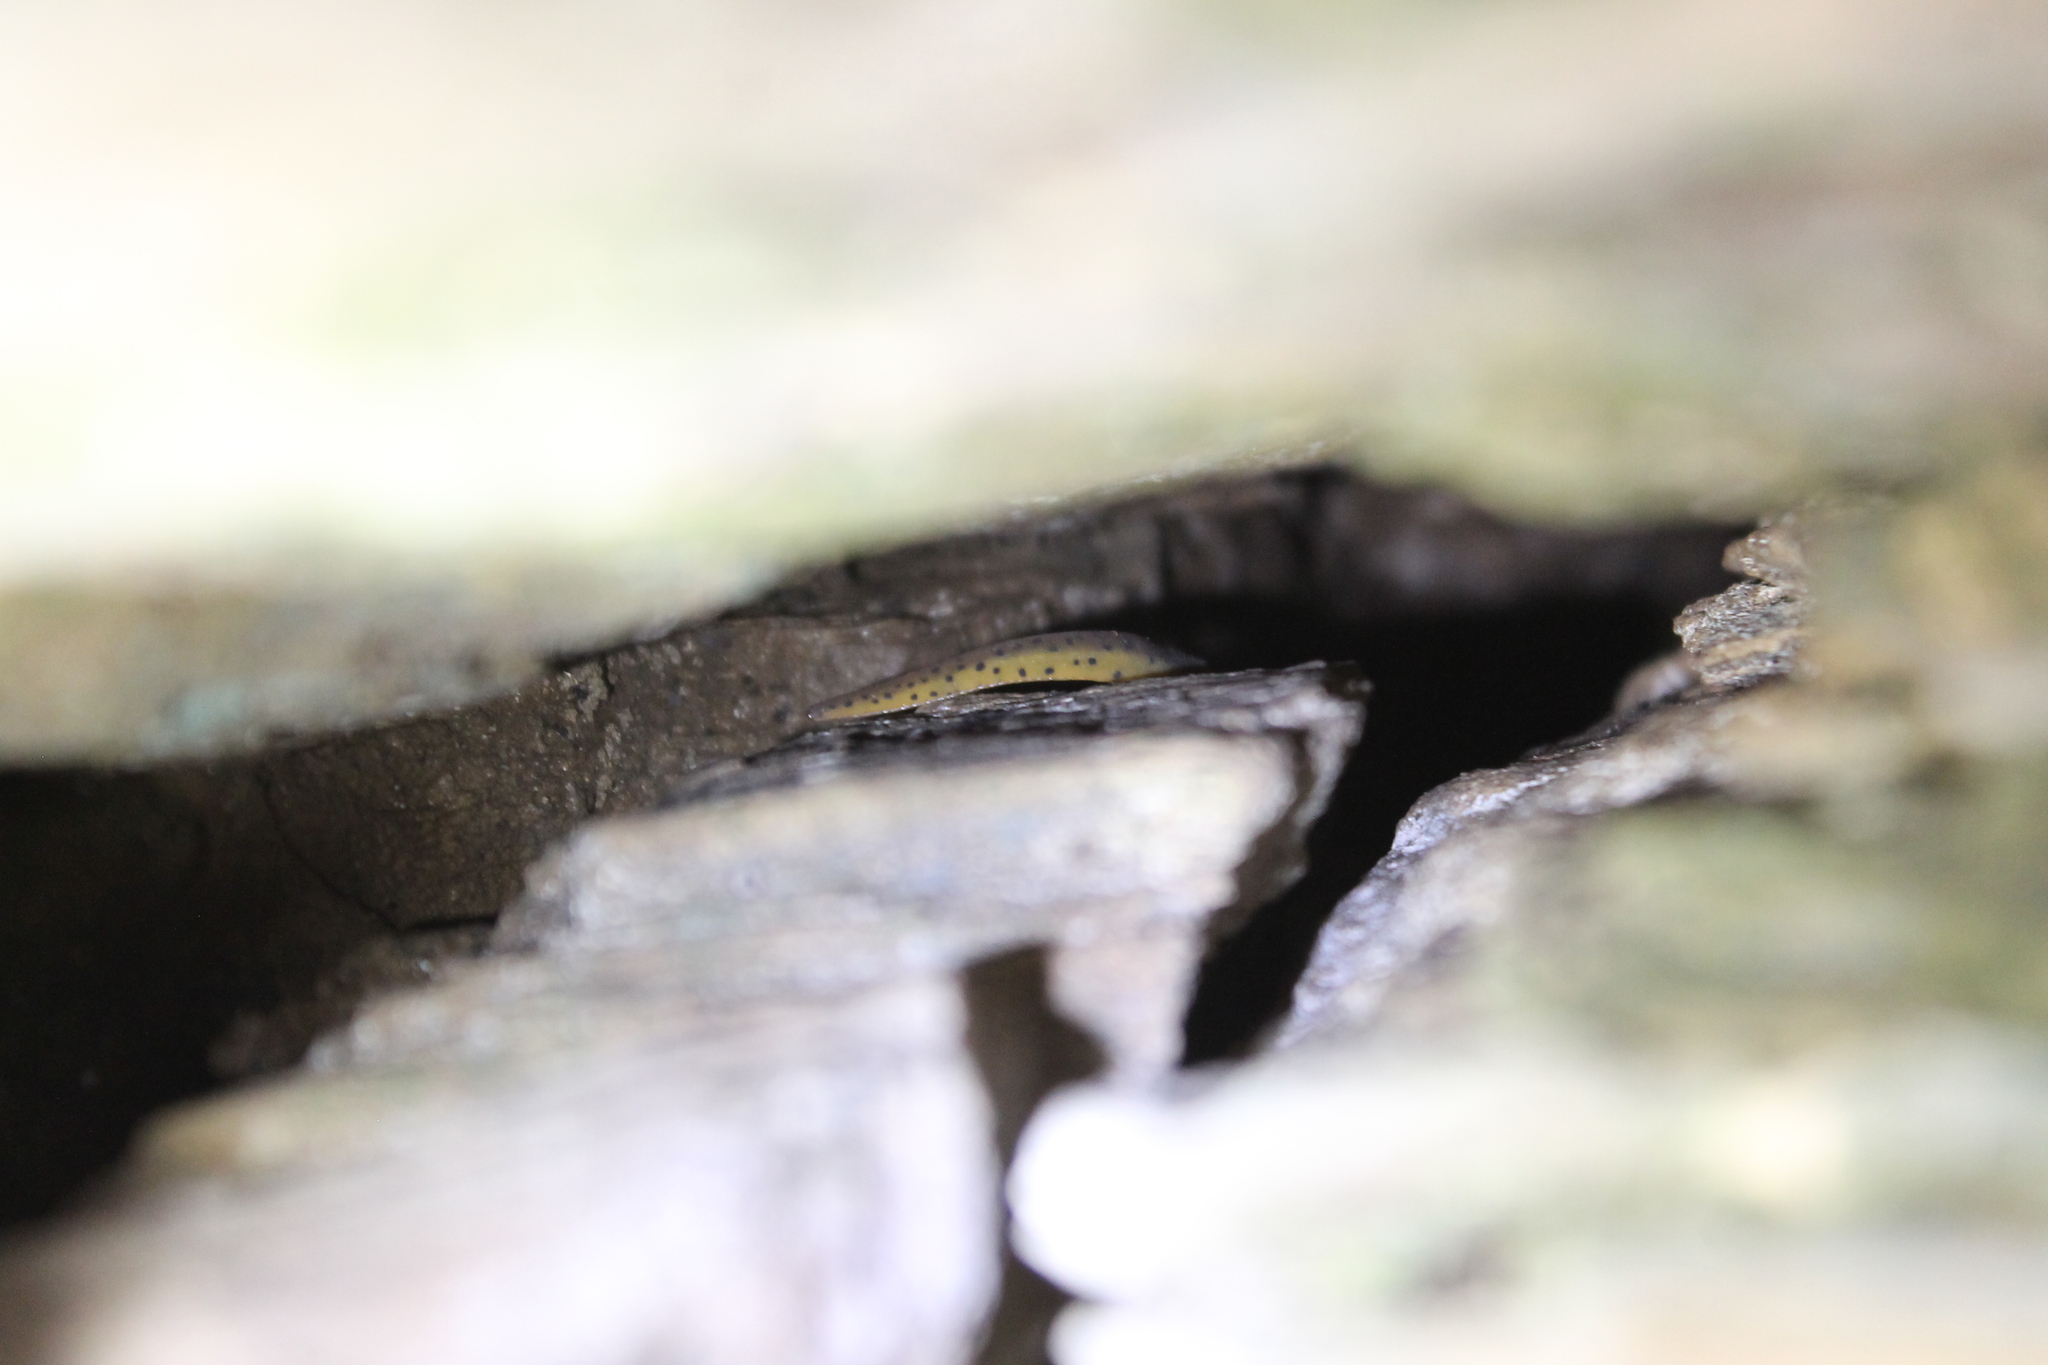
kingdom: Animalia
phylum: Chordata
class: Amphibia
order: Caudata
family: Salamandridae
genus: Notophthalmus
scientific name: Notophthalmus viridescens
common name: Eastern newt
